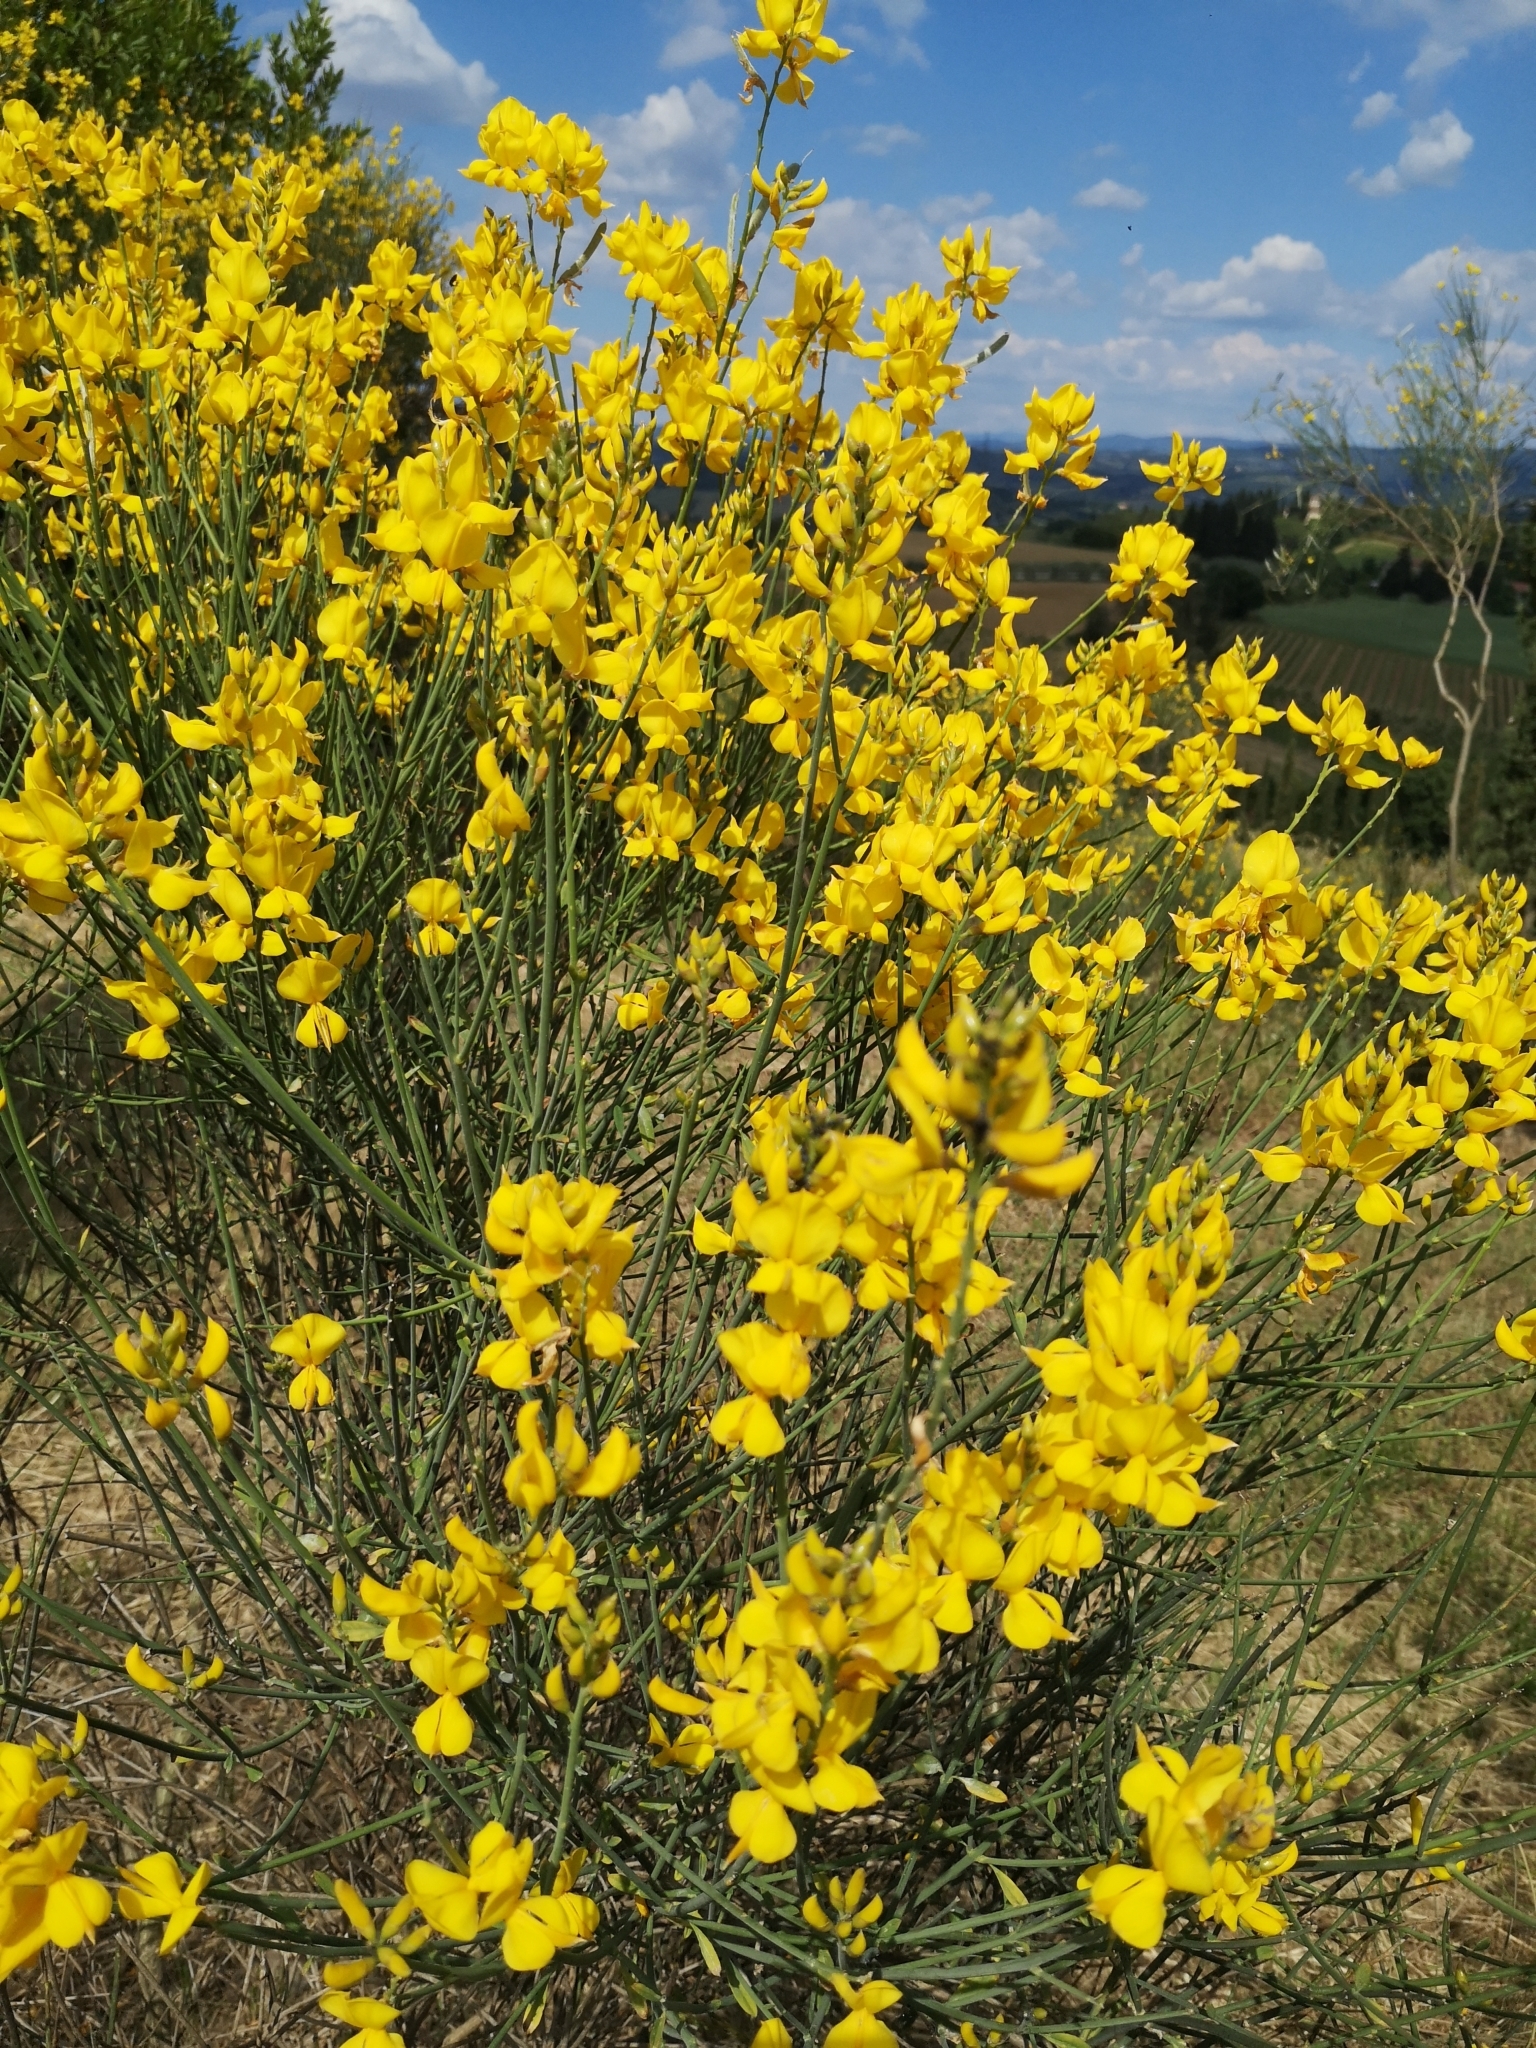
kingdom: Plantae
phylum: Tracheophyta
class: Magnoliopsida
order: Fabales
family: Fabaceae
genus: Spartium
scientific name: Spartium junceum
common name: Spanish broom
